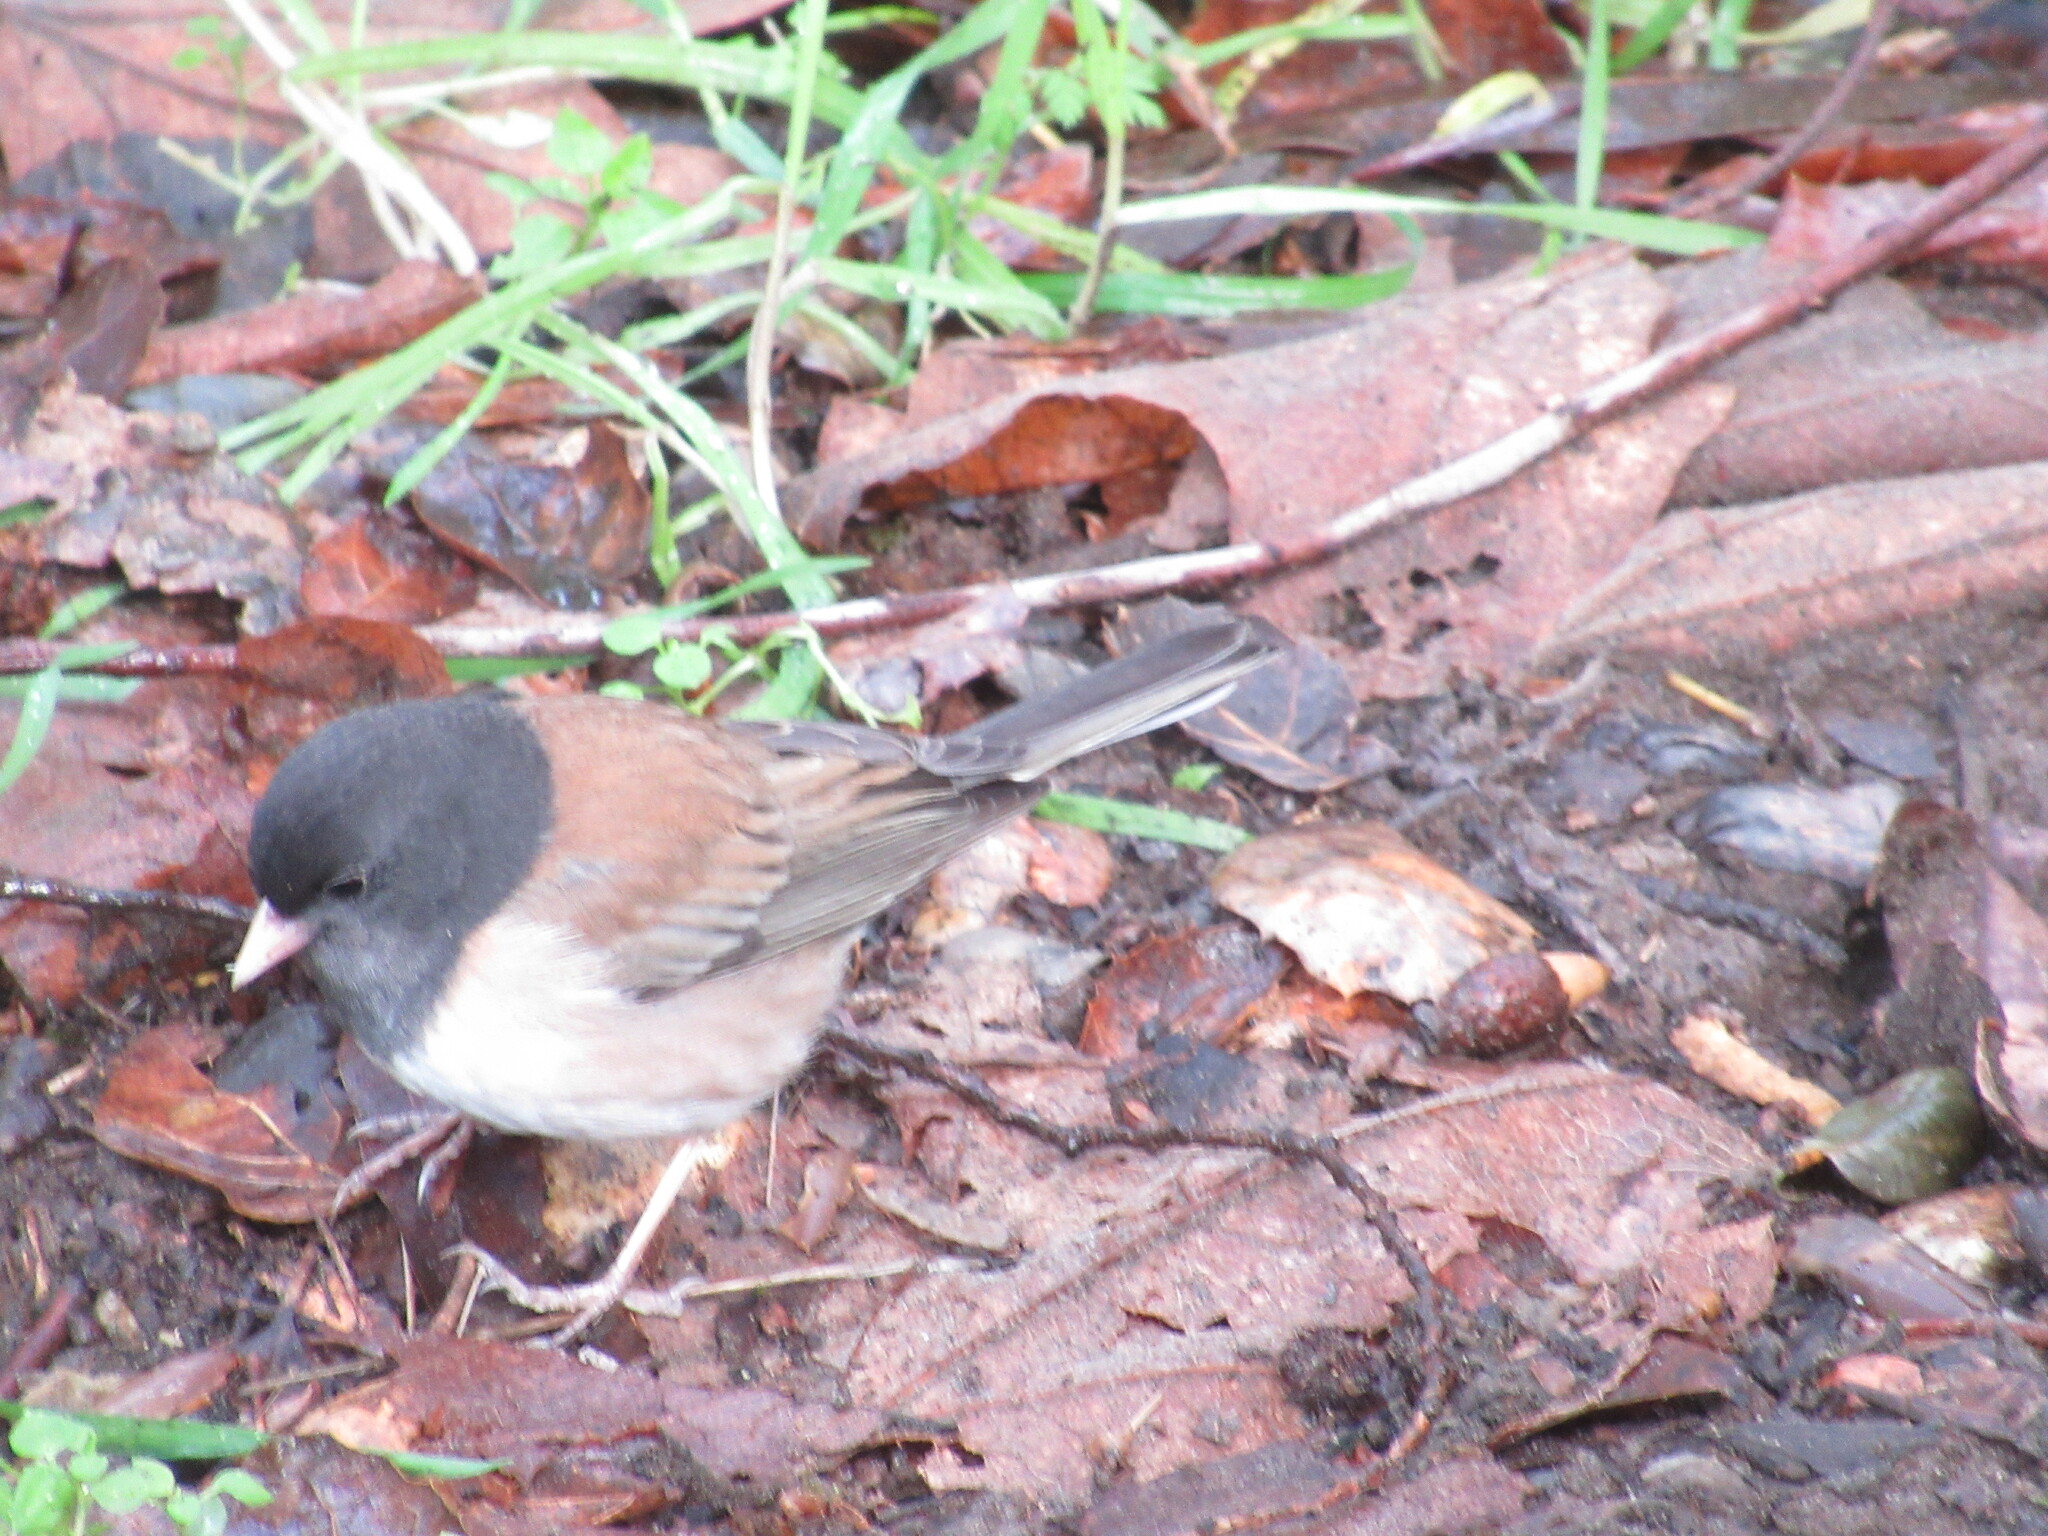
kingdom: Animalia
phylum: Chordata
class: Aves
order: Passeriformes
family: Passerellidae
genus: Junco
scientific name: Junco hyemalis
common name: Dark-eyed junco
